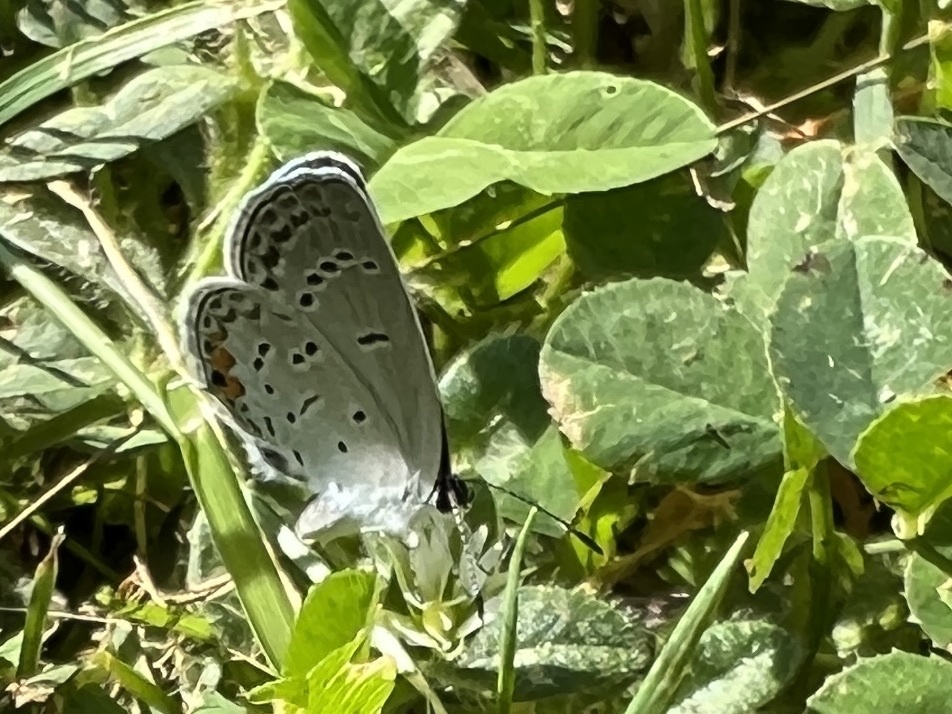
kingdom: Animalia
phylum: Arthropoda
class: Insecta
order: Lepidoptera
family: Lycaenidae
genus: Elkalyce
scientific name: Elkalyce comyntas
